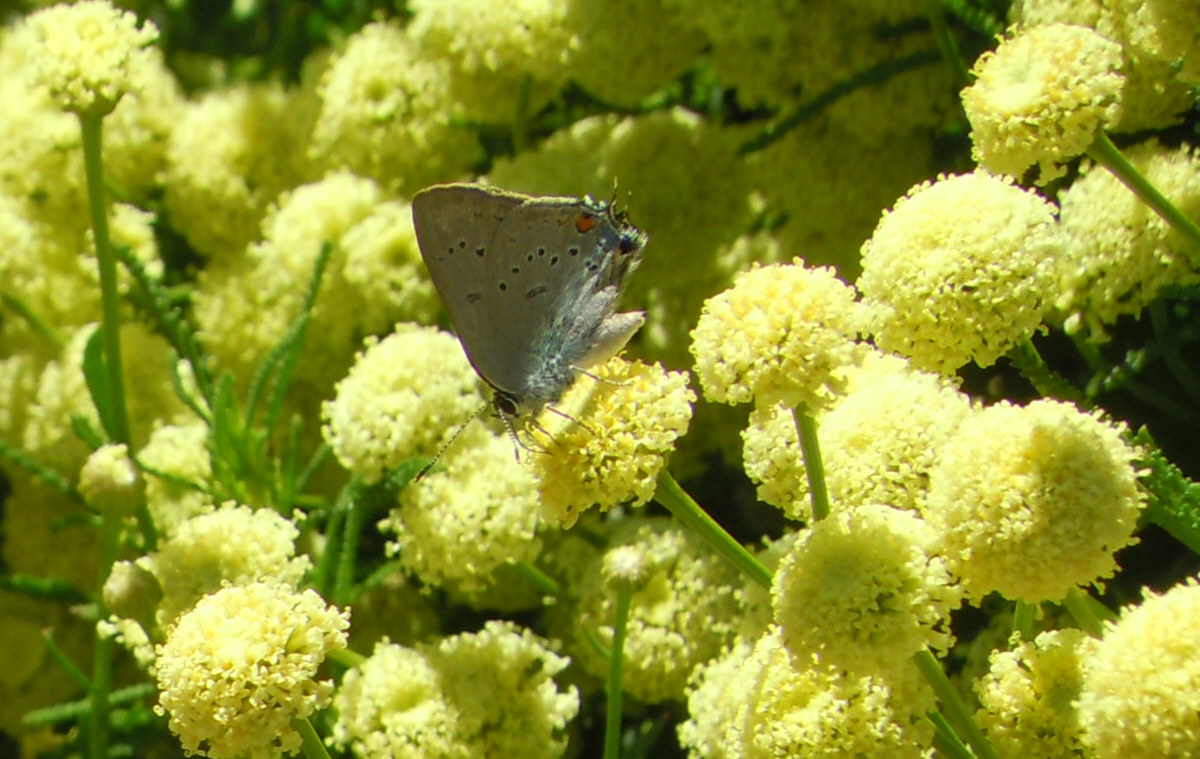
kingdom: Animalia
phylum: Arthropoda
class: Insecta
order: Lepidoptera
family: Lycaenidae
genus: Strymon
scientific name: Strymon sylvinus
